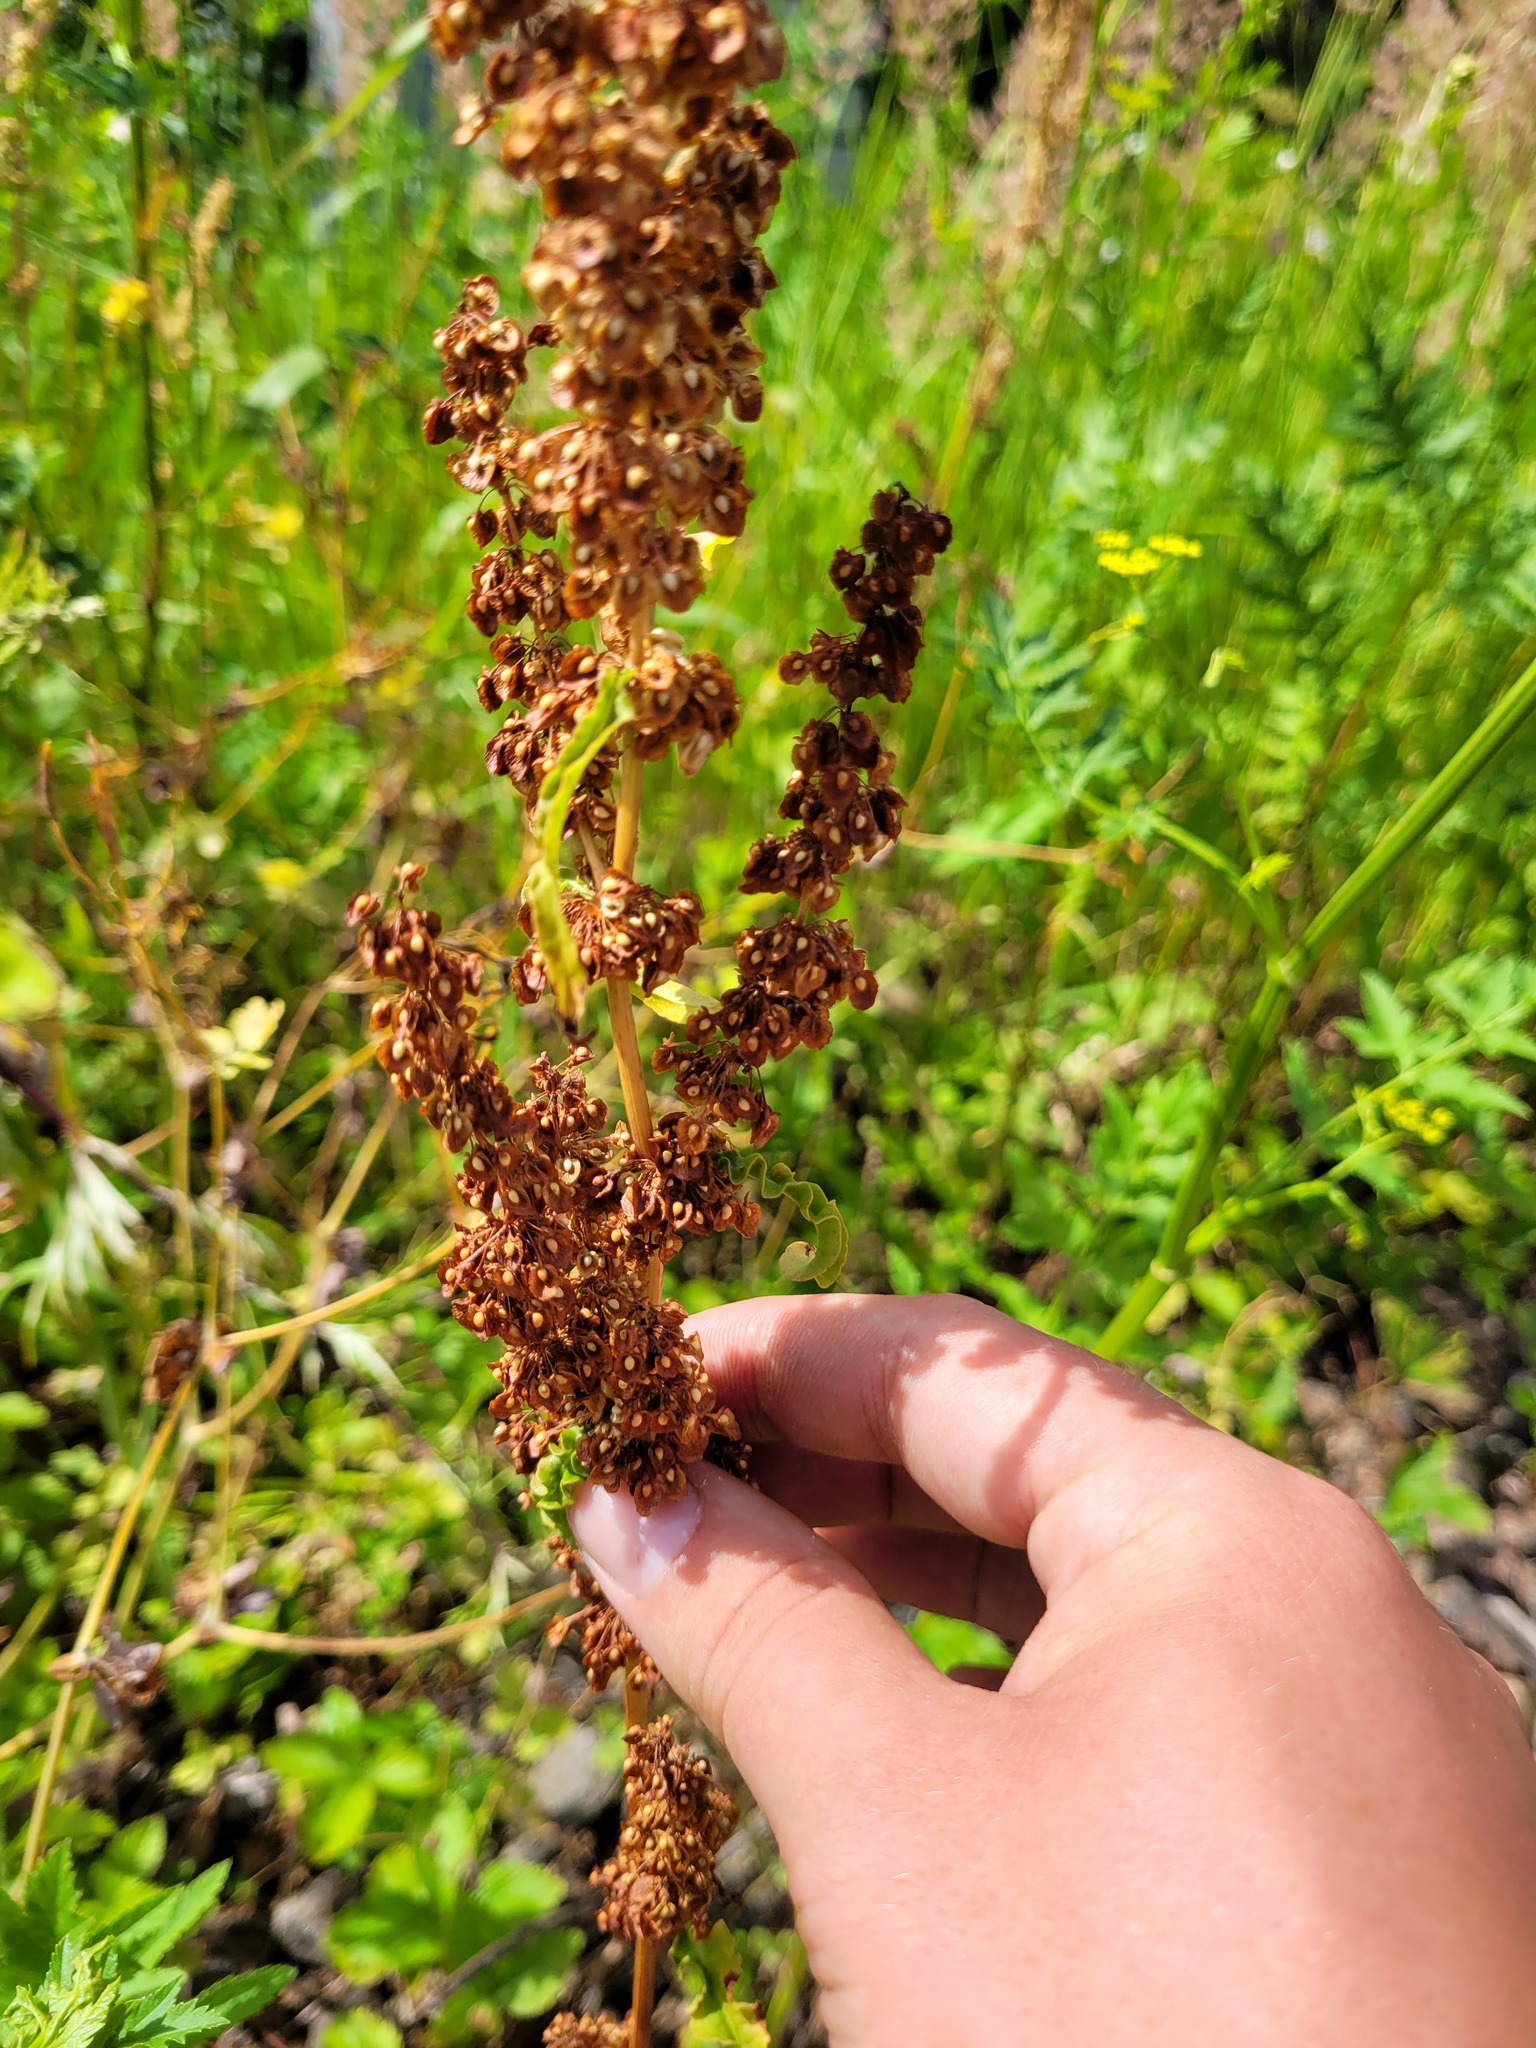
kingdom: Plantae
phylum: Tracheophyta
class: Magnoliopsida
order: Caryophyllales
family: Polygonaceae
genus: Rumex
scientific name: Rumex crispus
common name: Curled dock
